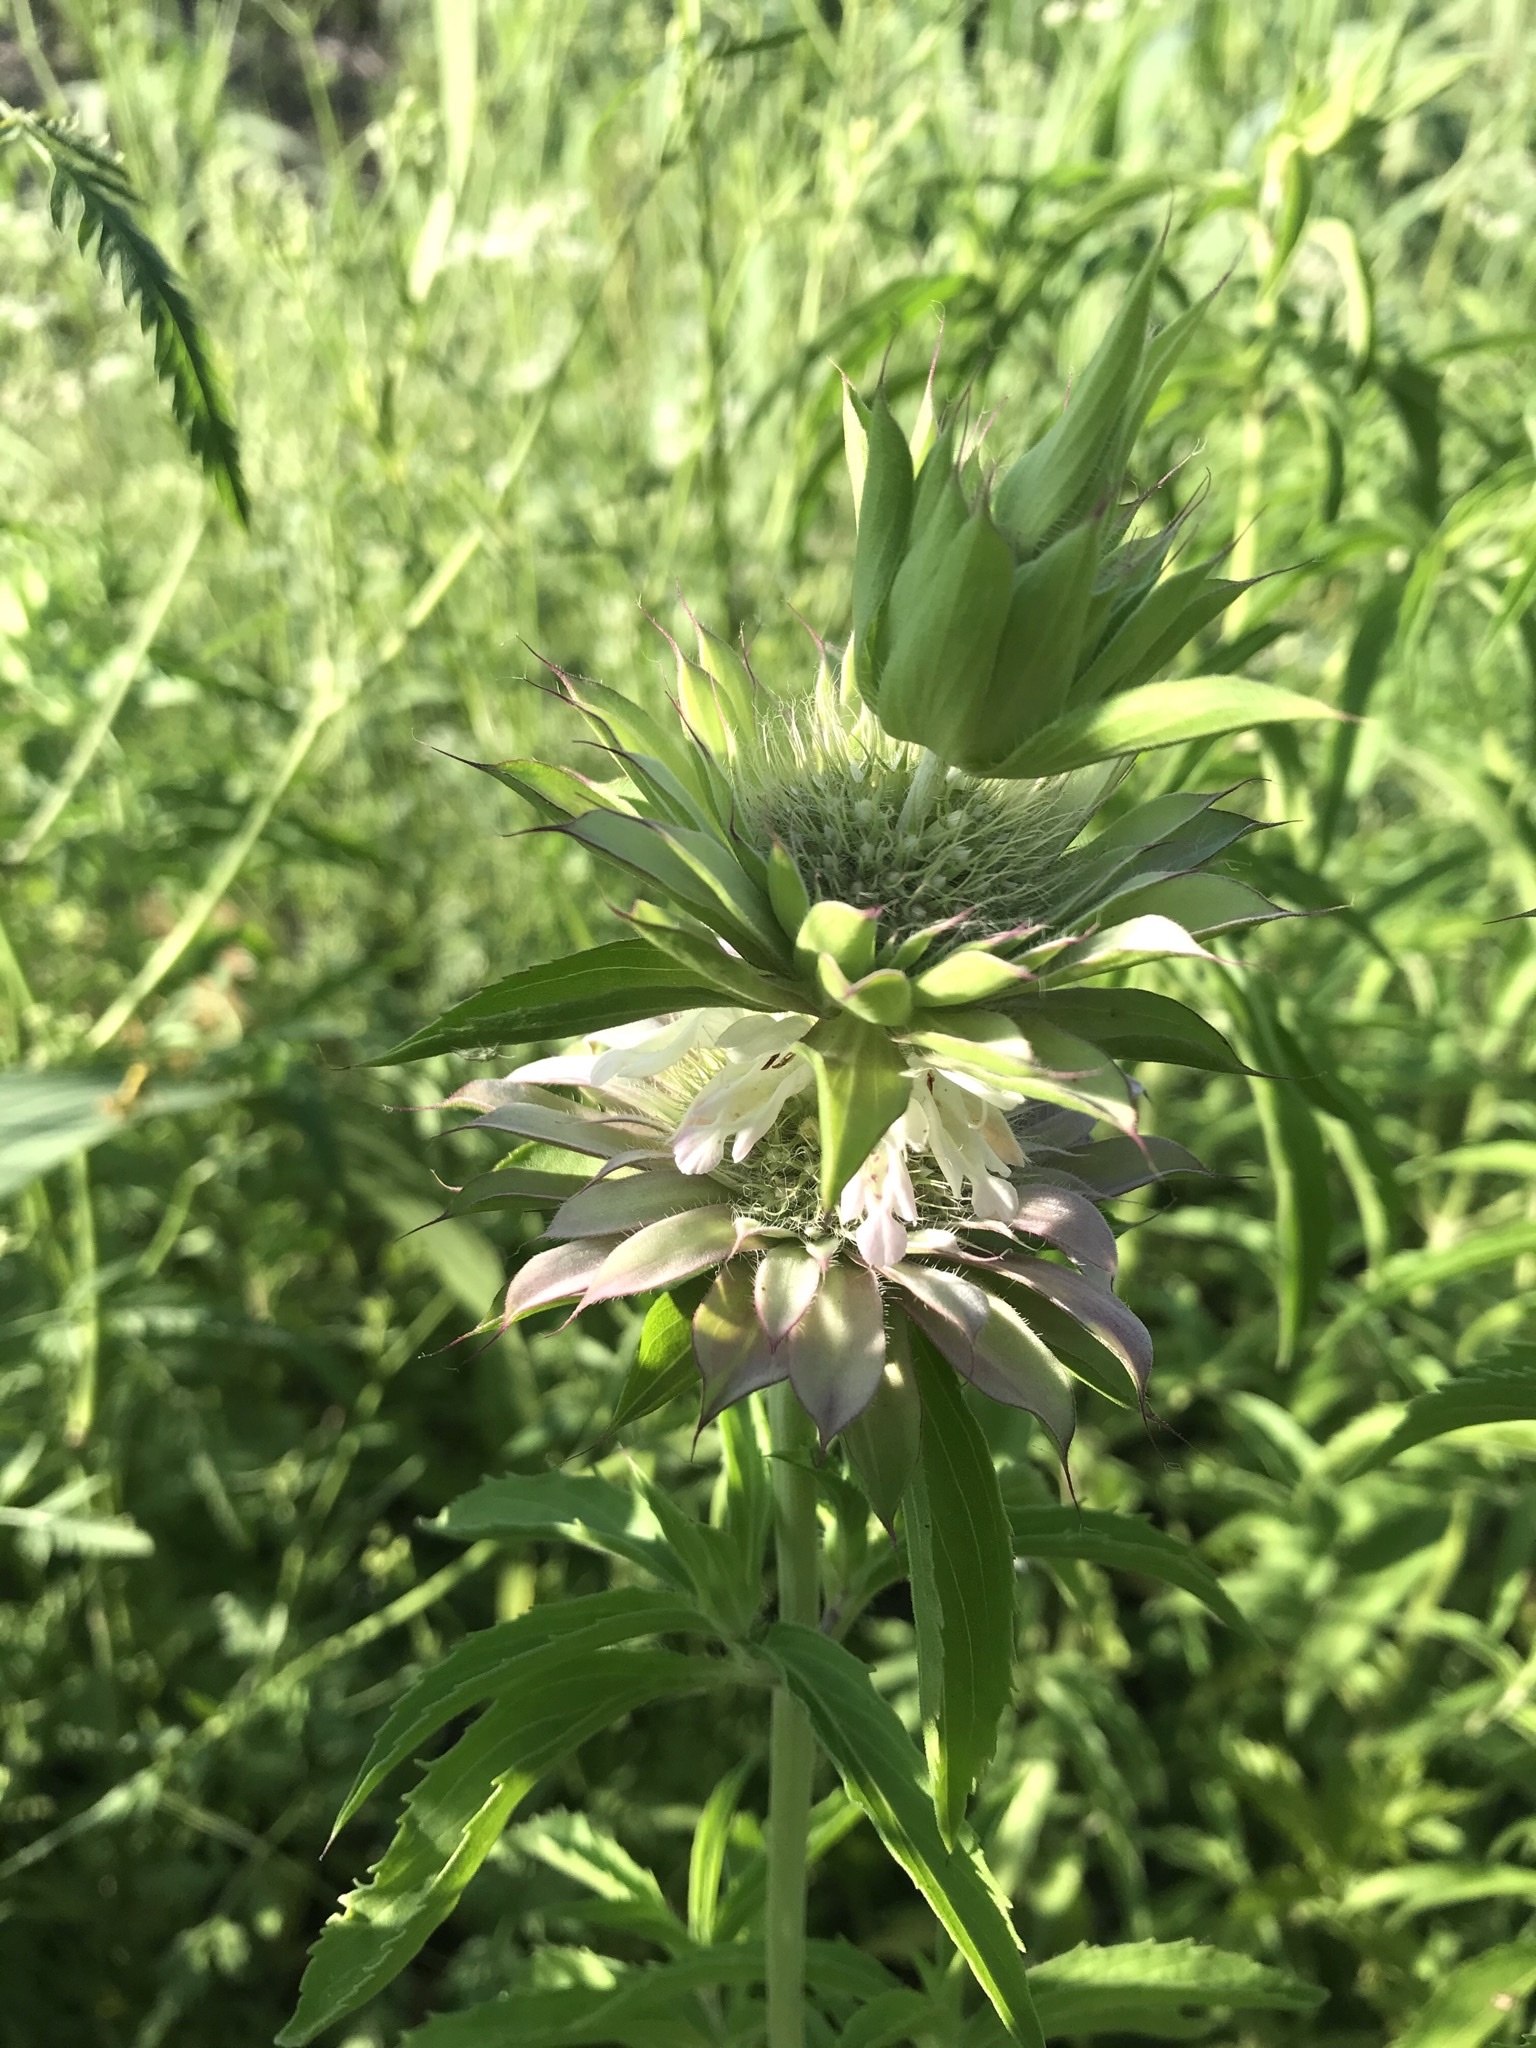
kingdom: Plantae
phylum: Tracheophyta
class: Magnoliopsida
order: Lamiales
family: Lamiaceae
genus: Monarda
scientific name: Monarda punctata
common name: Dotted monarda
